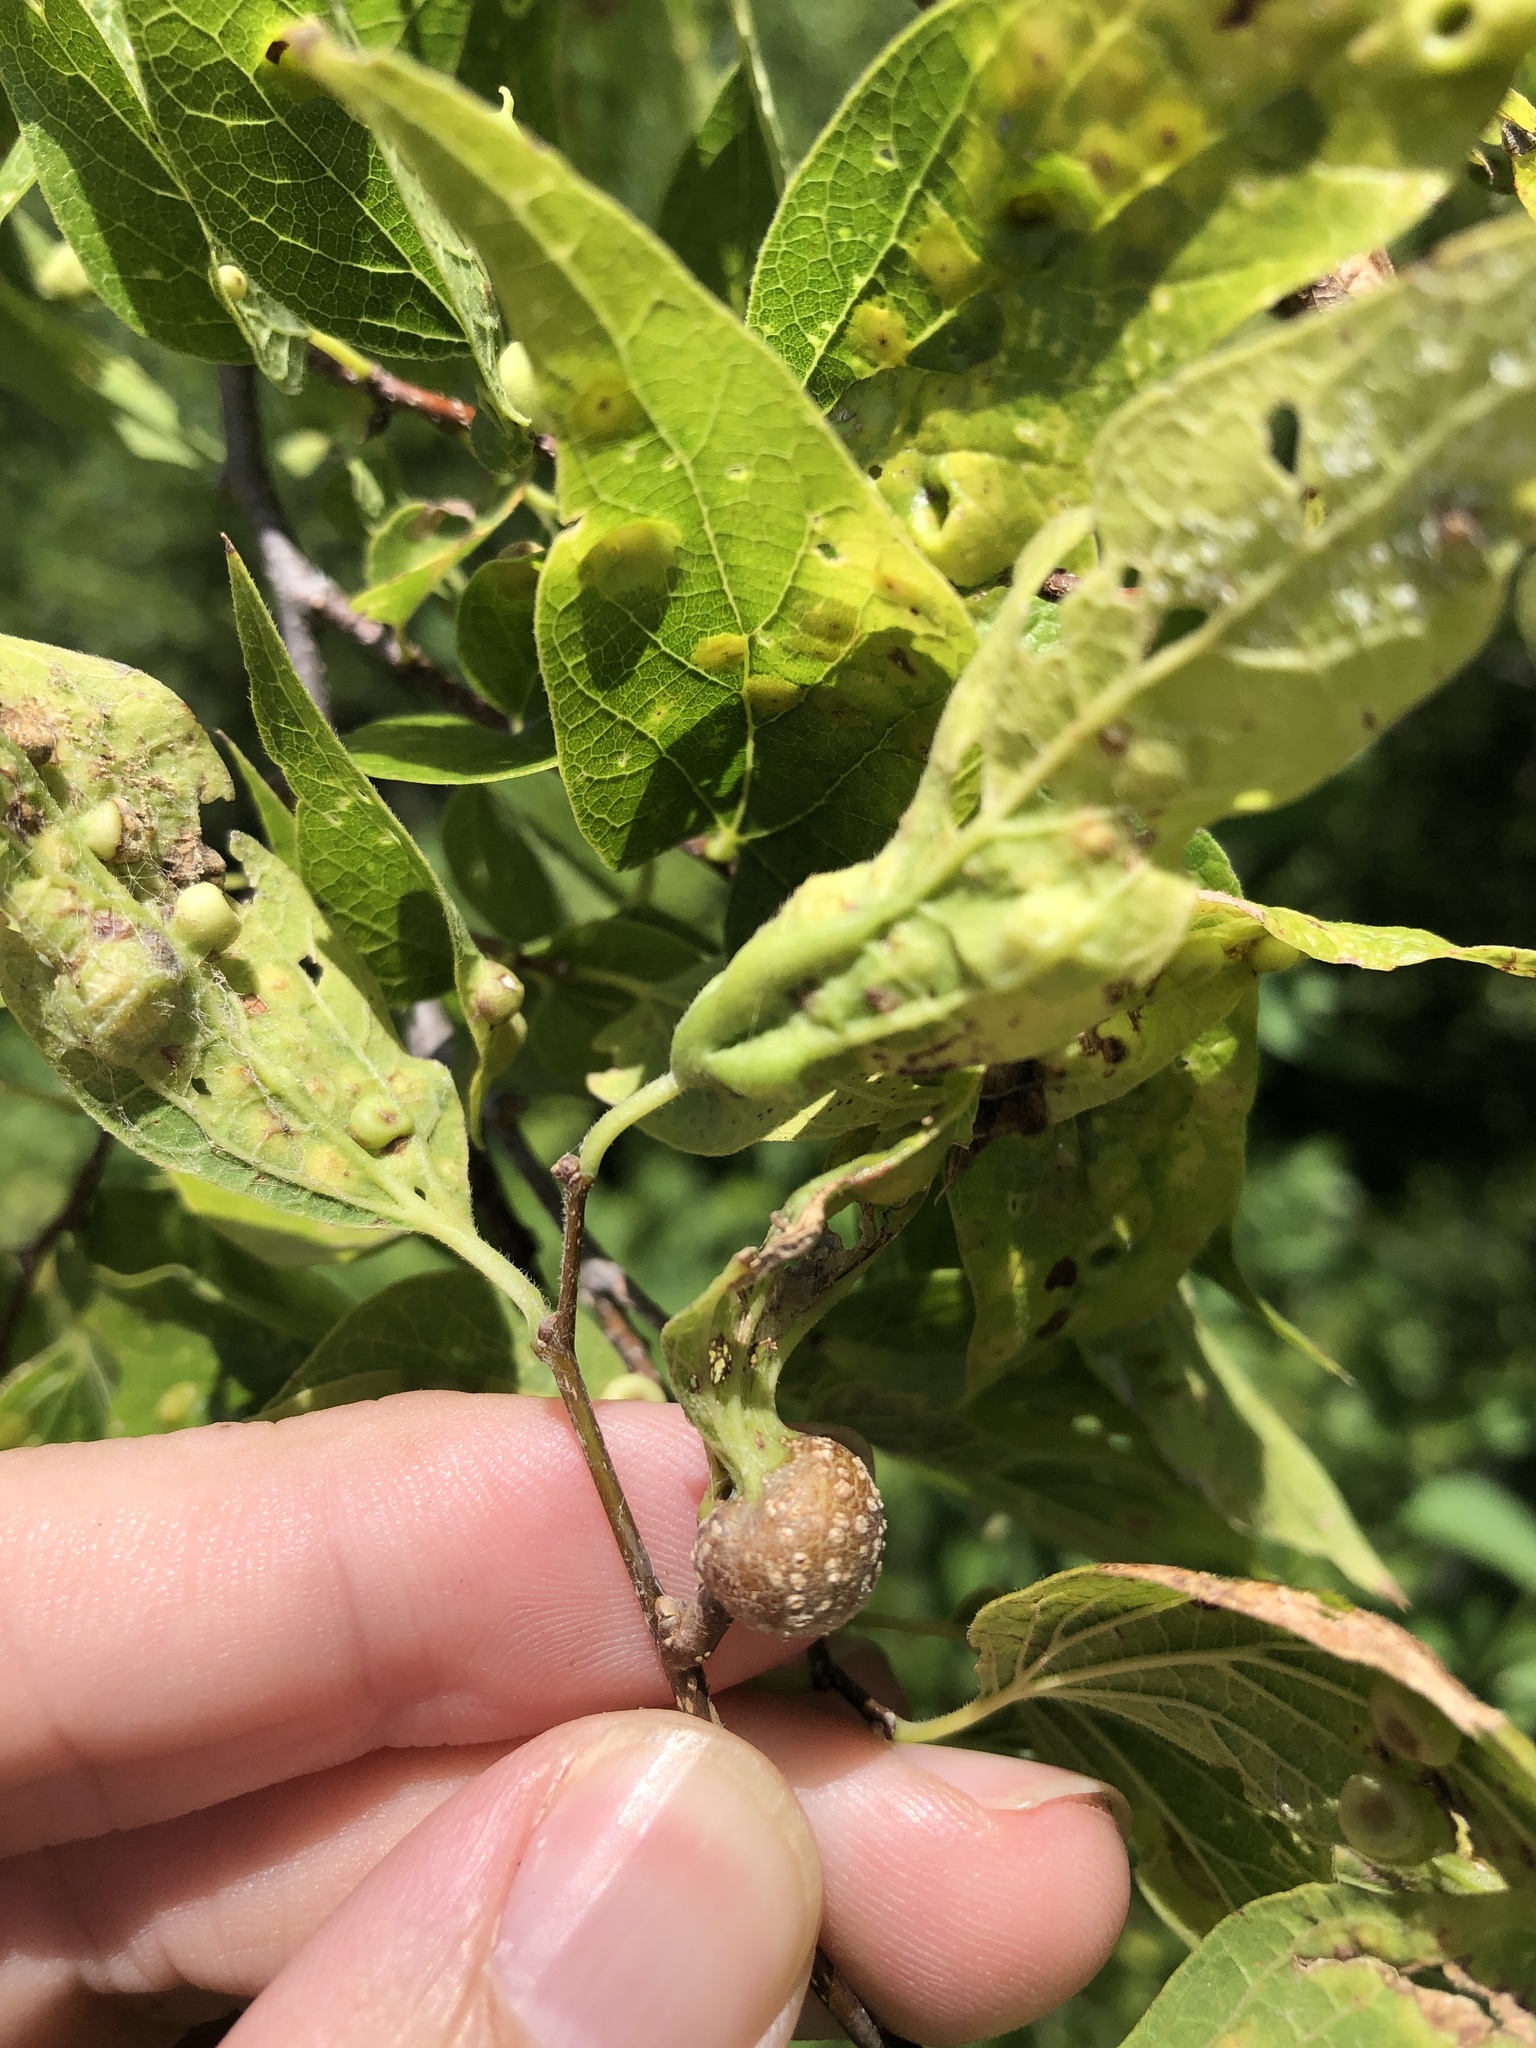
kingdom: Animalia
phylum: Arthropoda
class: Insecta
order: Hemiptera
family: Aphalaridae
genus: Pachypsylla
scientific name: Pachypsylla venusta
